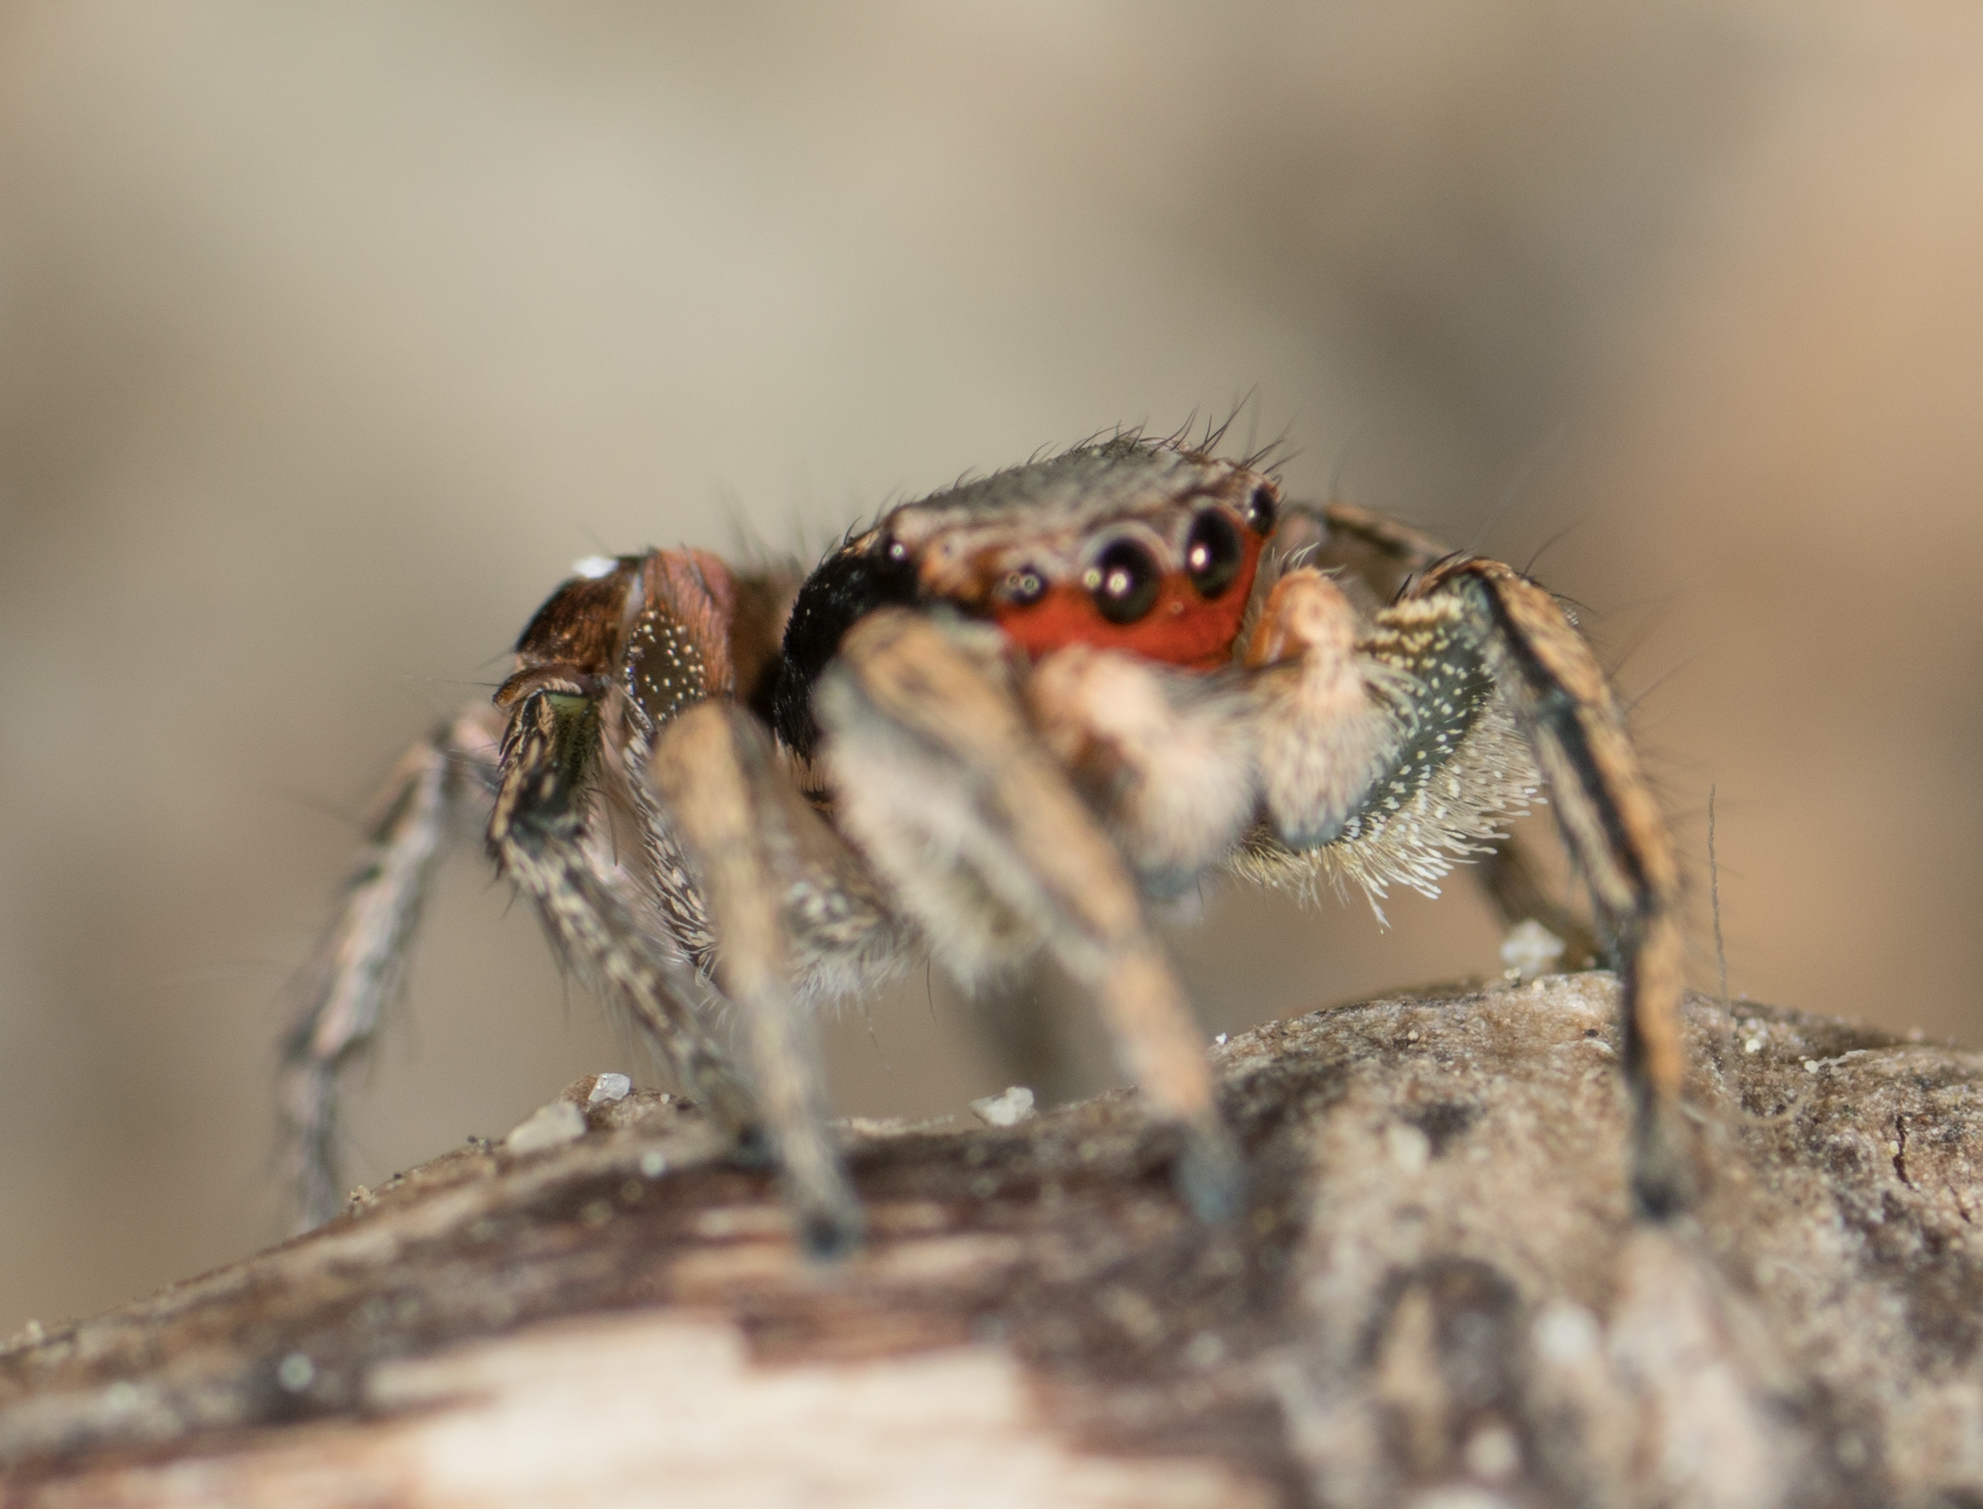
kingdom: Animalia
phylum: Arthropoda
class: Arachnida
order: Araneae
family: Salticidae
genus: Habronattus
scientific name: Habronattus pyrrithrix
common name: Jumping spider
